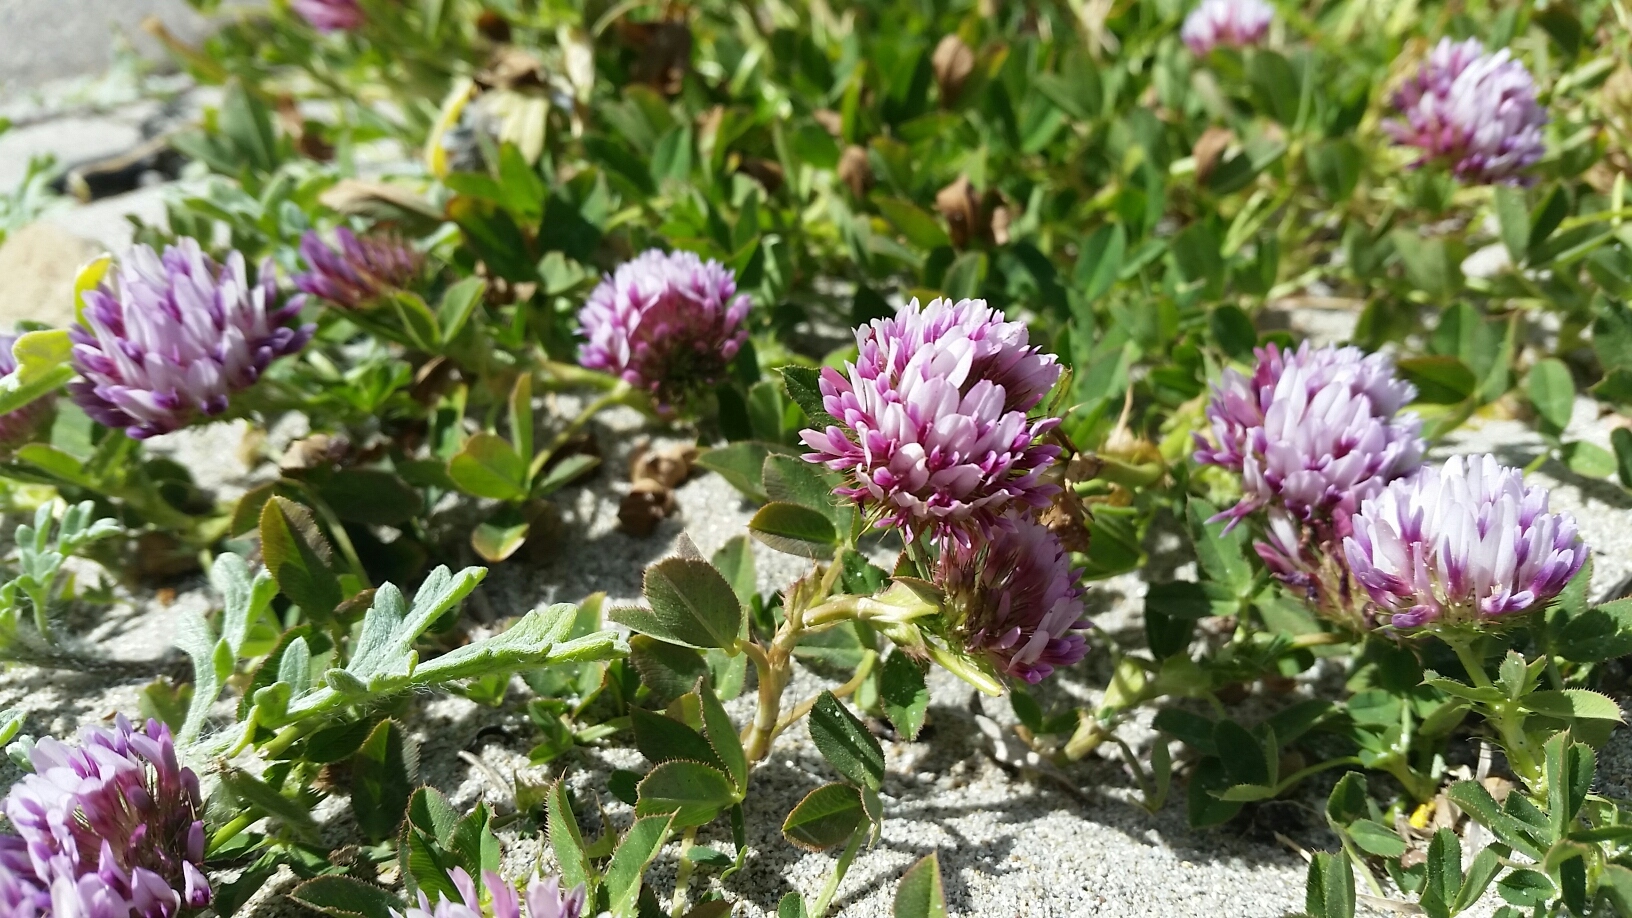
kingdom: Plantae
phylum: Tracheophyta
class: Magnoliopsida
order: Fabales
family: Fabaceae
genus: Trifolium
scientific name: Trifolium wormskioldii
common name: Springbank clover
